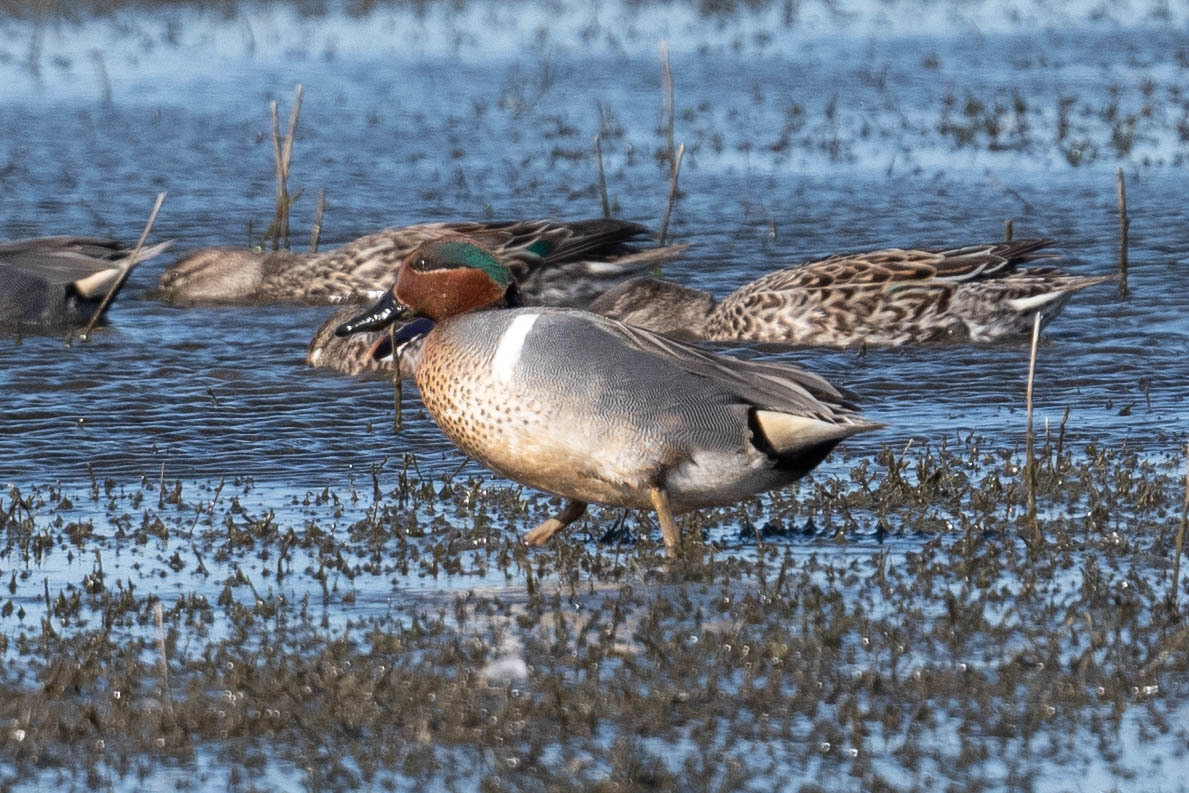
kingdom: Animalia
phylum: Chordata
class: Aves
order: Anseriformes
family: Anatidae
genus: Anas
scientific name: Anas crecca
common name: Eurasian teal
